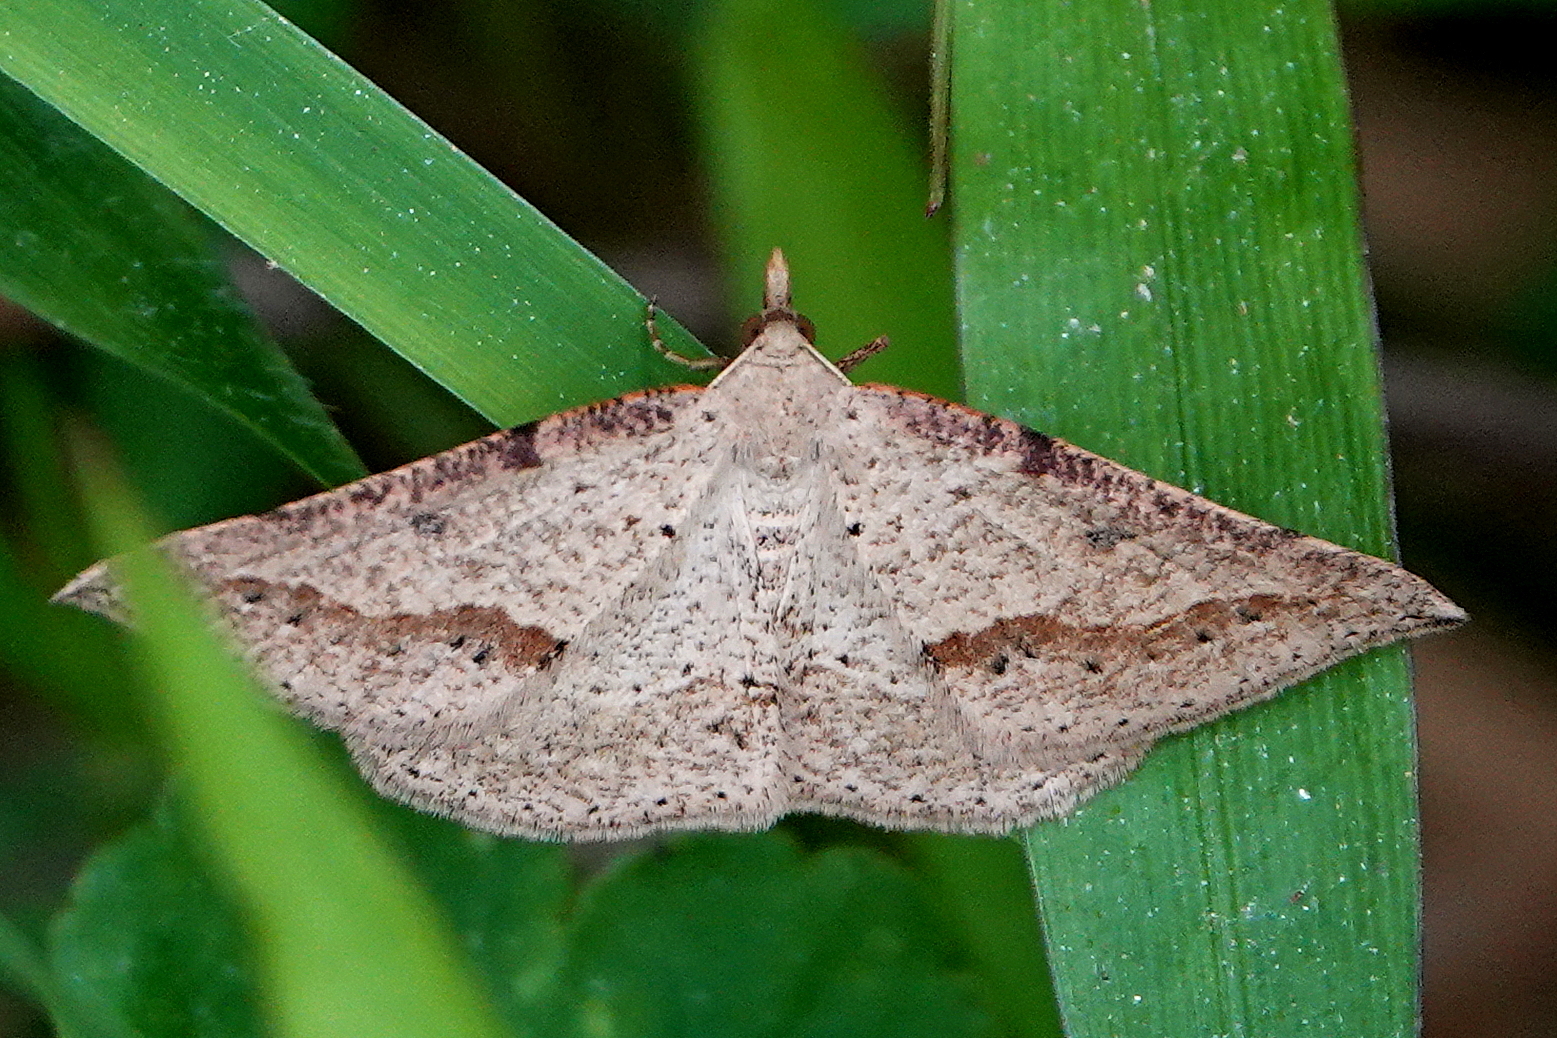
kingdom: Animalia
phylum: Arthropoda
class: Insecta
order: Lepidoptera
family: Geometridae
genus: Taxeotis
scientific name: Taxeotis stereospila
